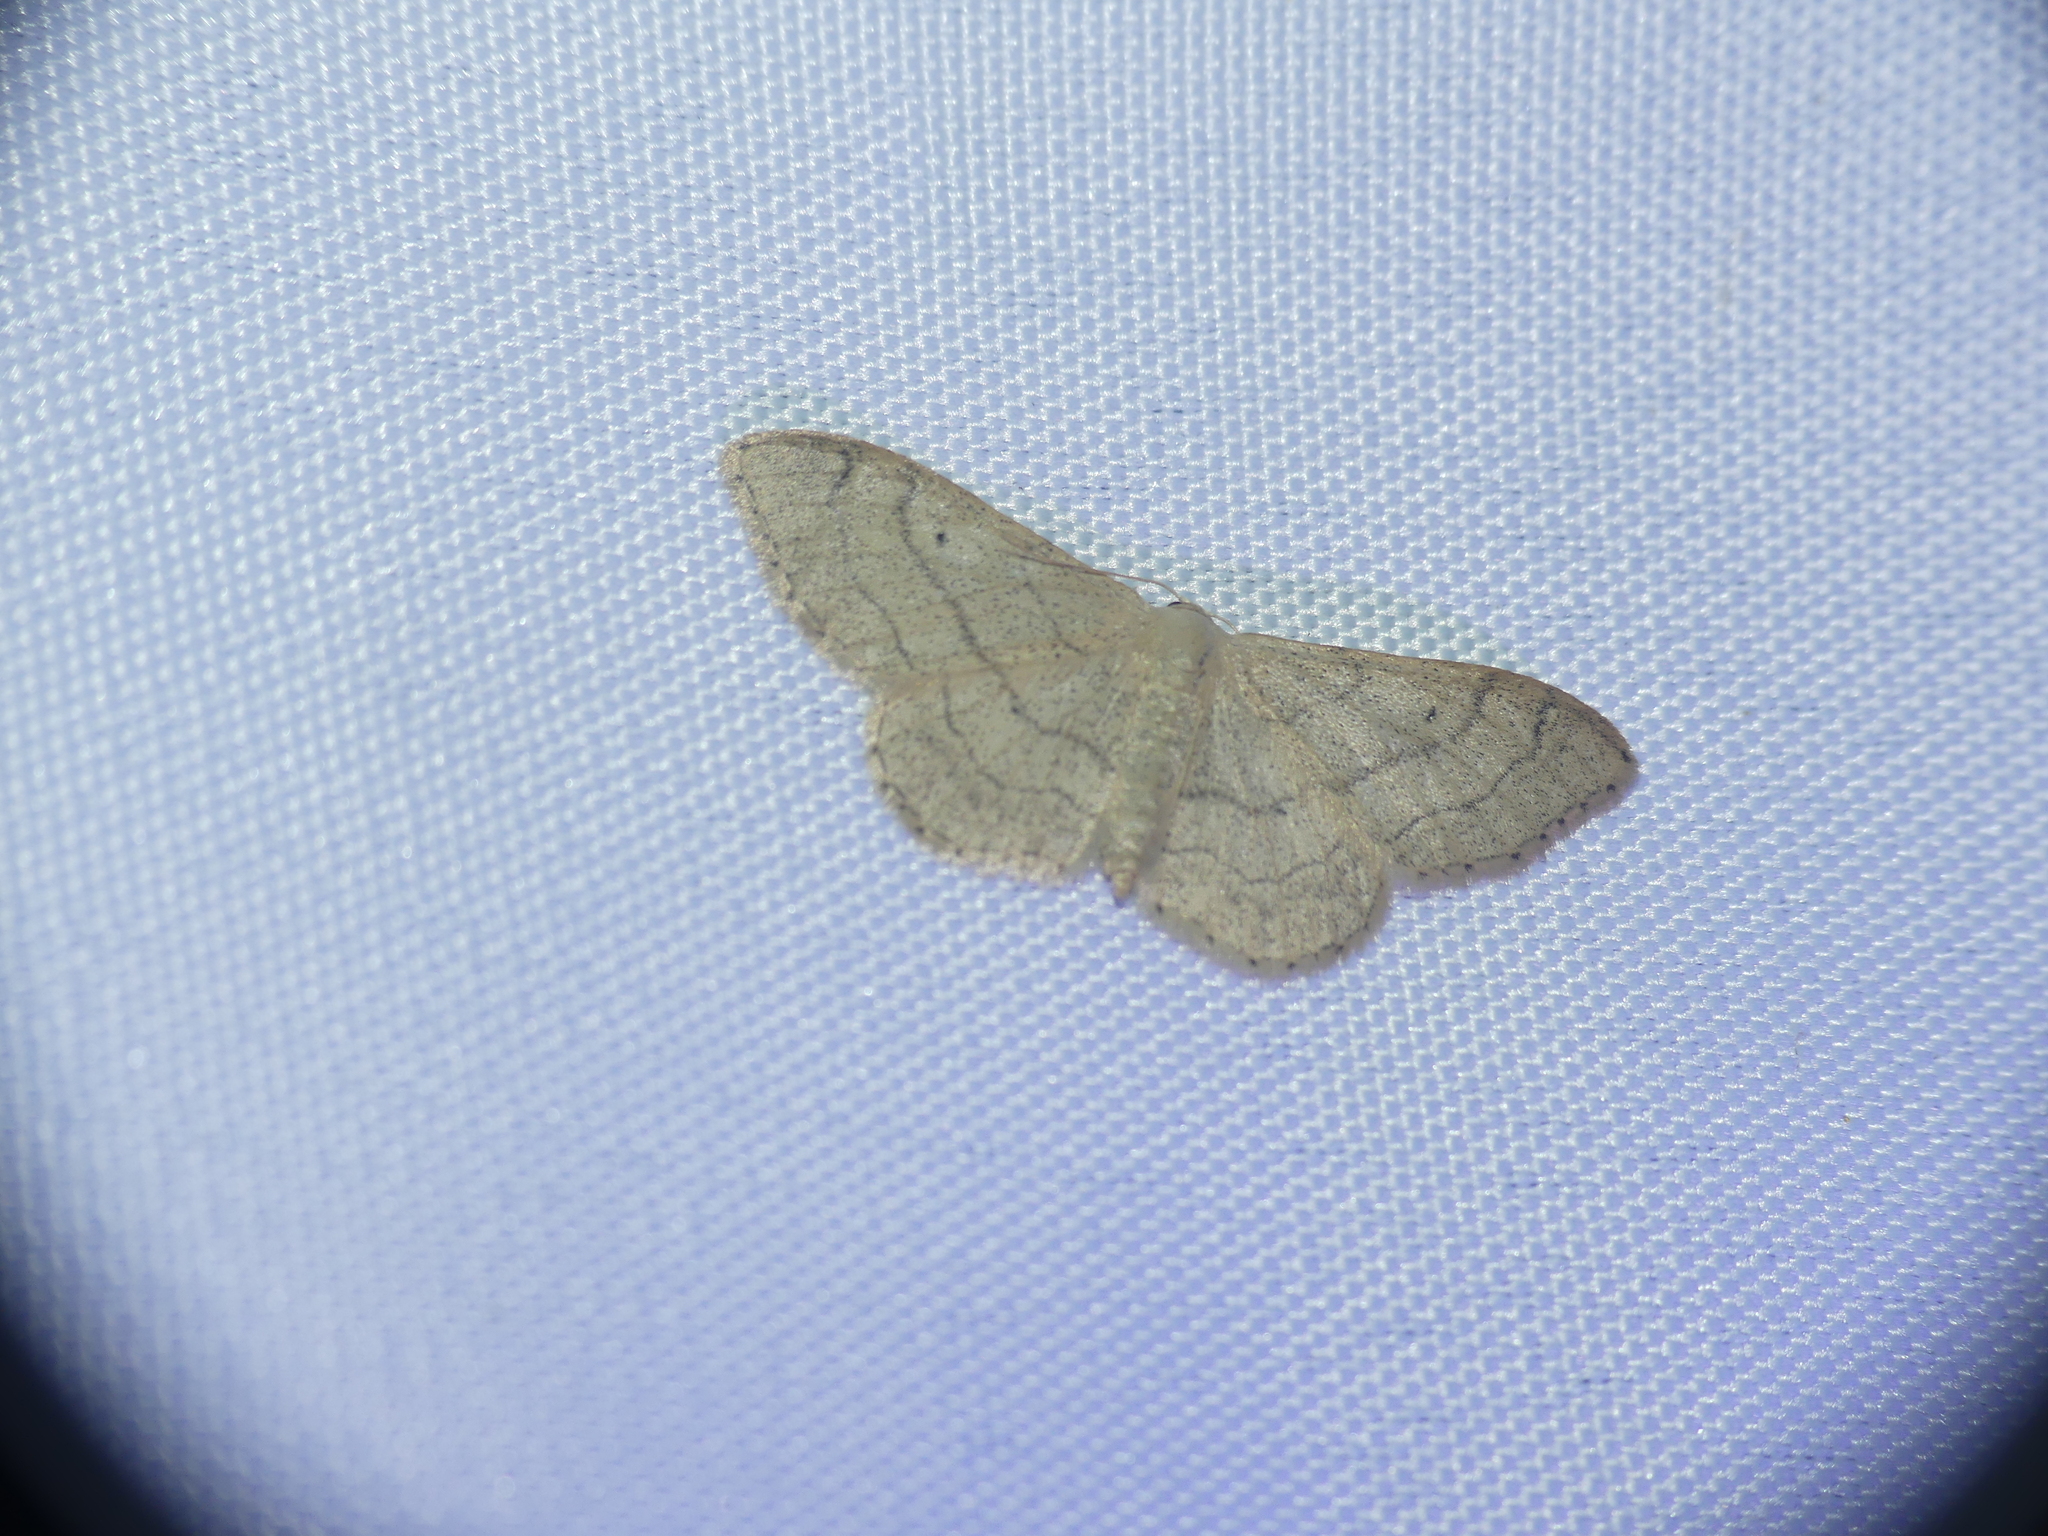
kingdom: Animalia
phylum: Arthropoda
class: Insecta
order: Lepidoptera
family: Geometridae
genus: Idaea
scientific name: Idaea aversata
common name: Riband wave
